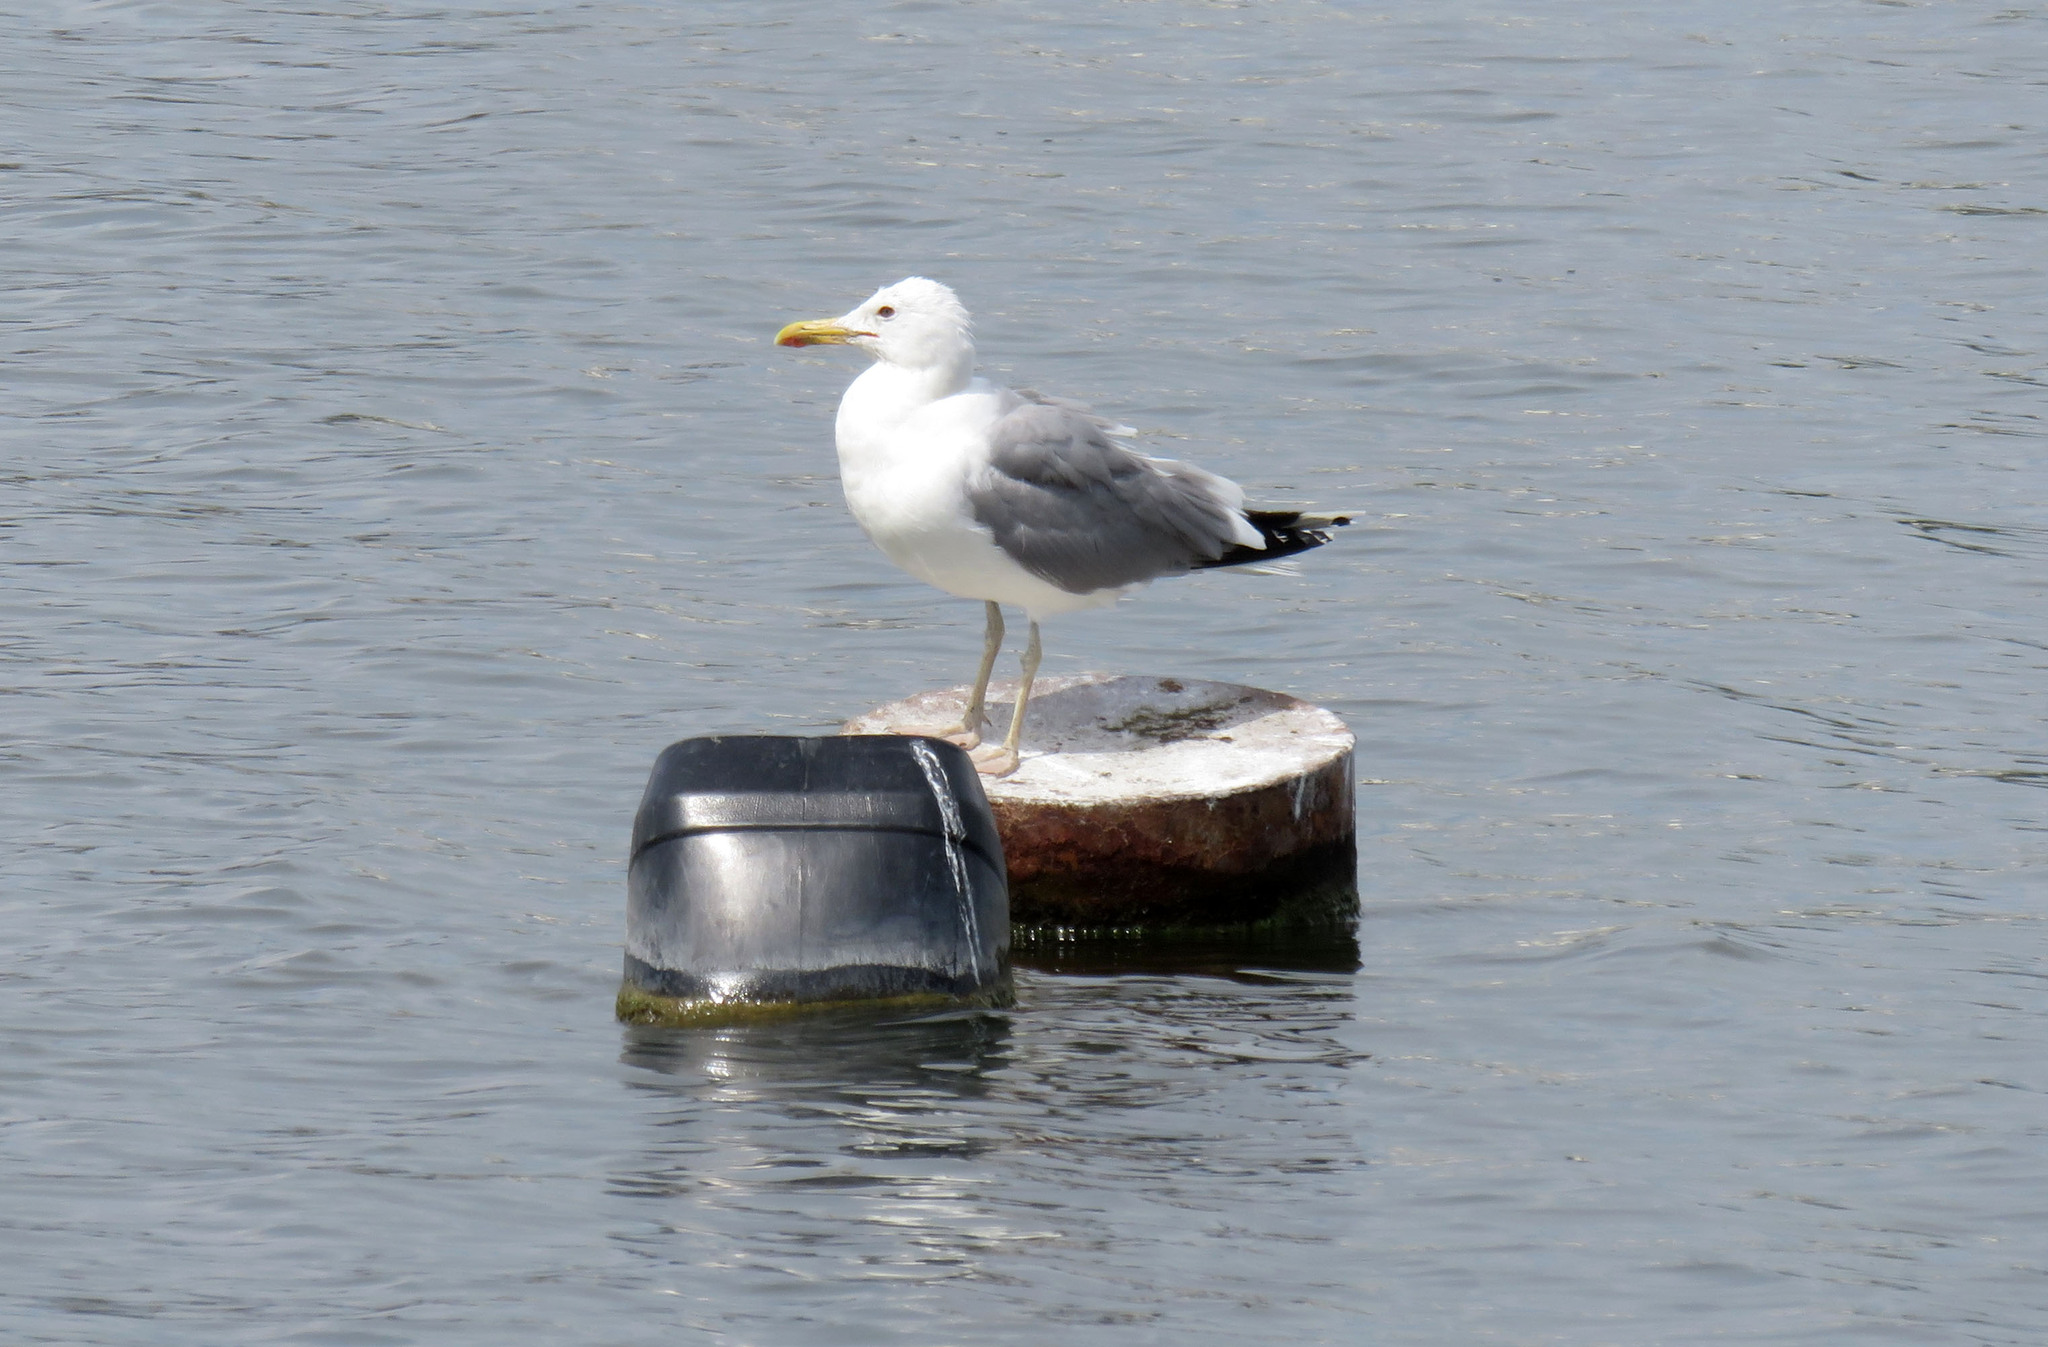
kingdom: Animalia
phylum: Chordata
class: Aves
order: Charadriiformes
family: Laridae
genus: Larus
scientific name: Larus cachinnans
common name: Caspian gull
